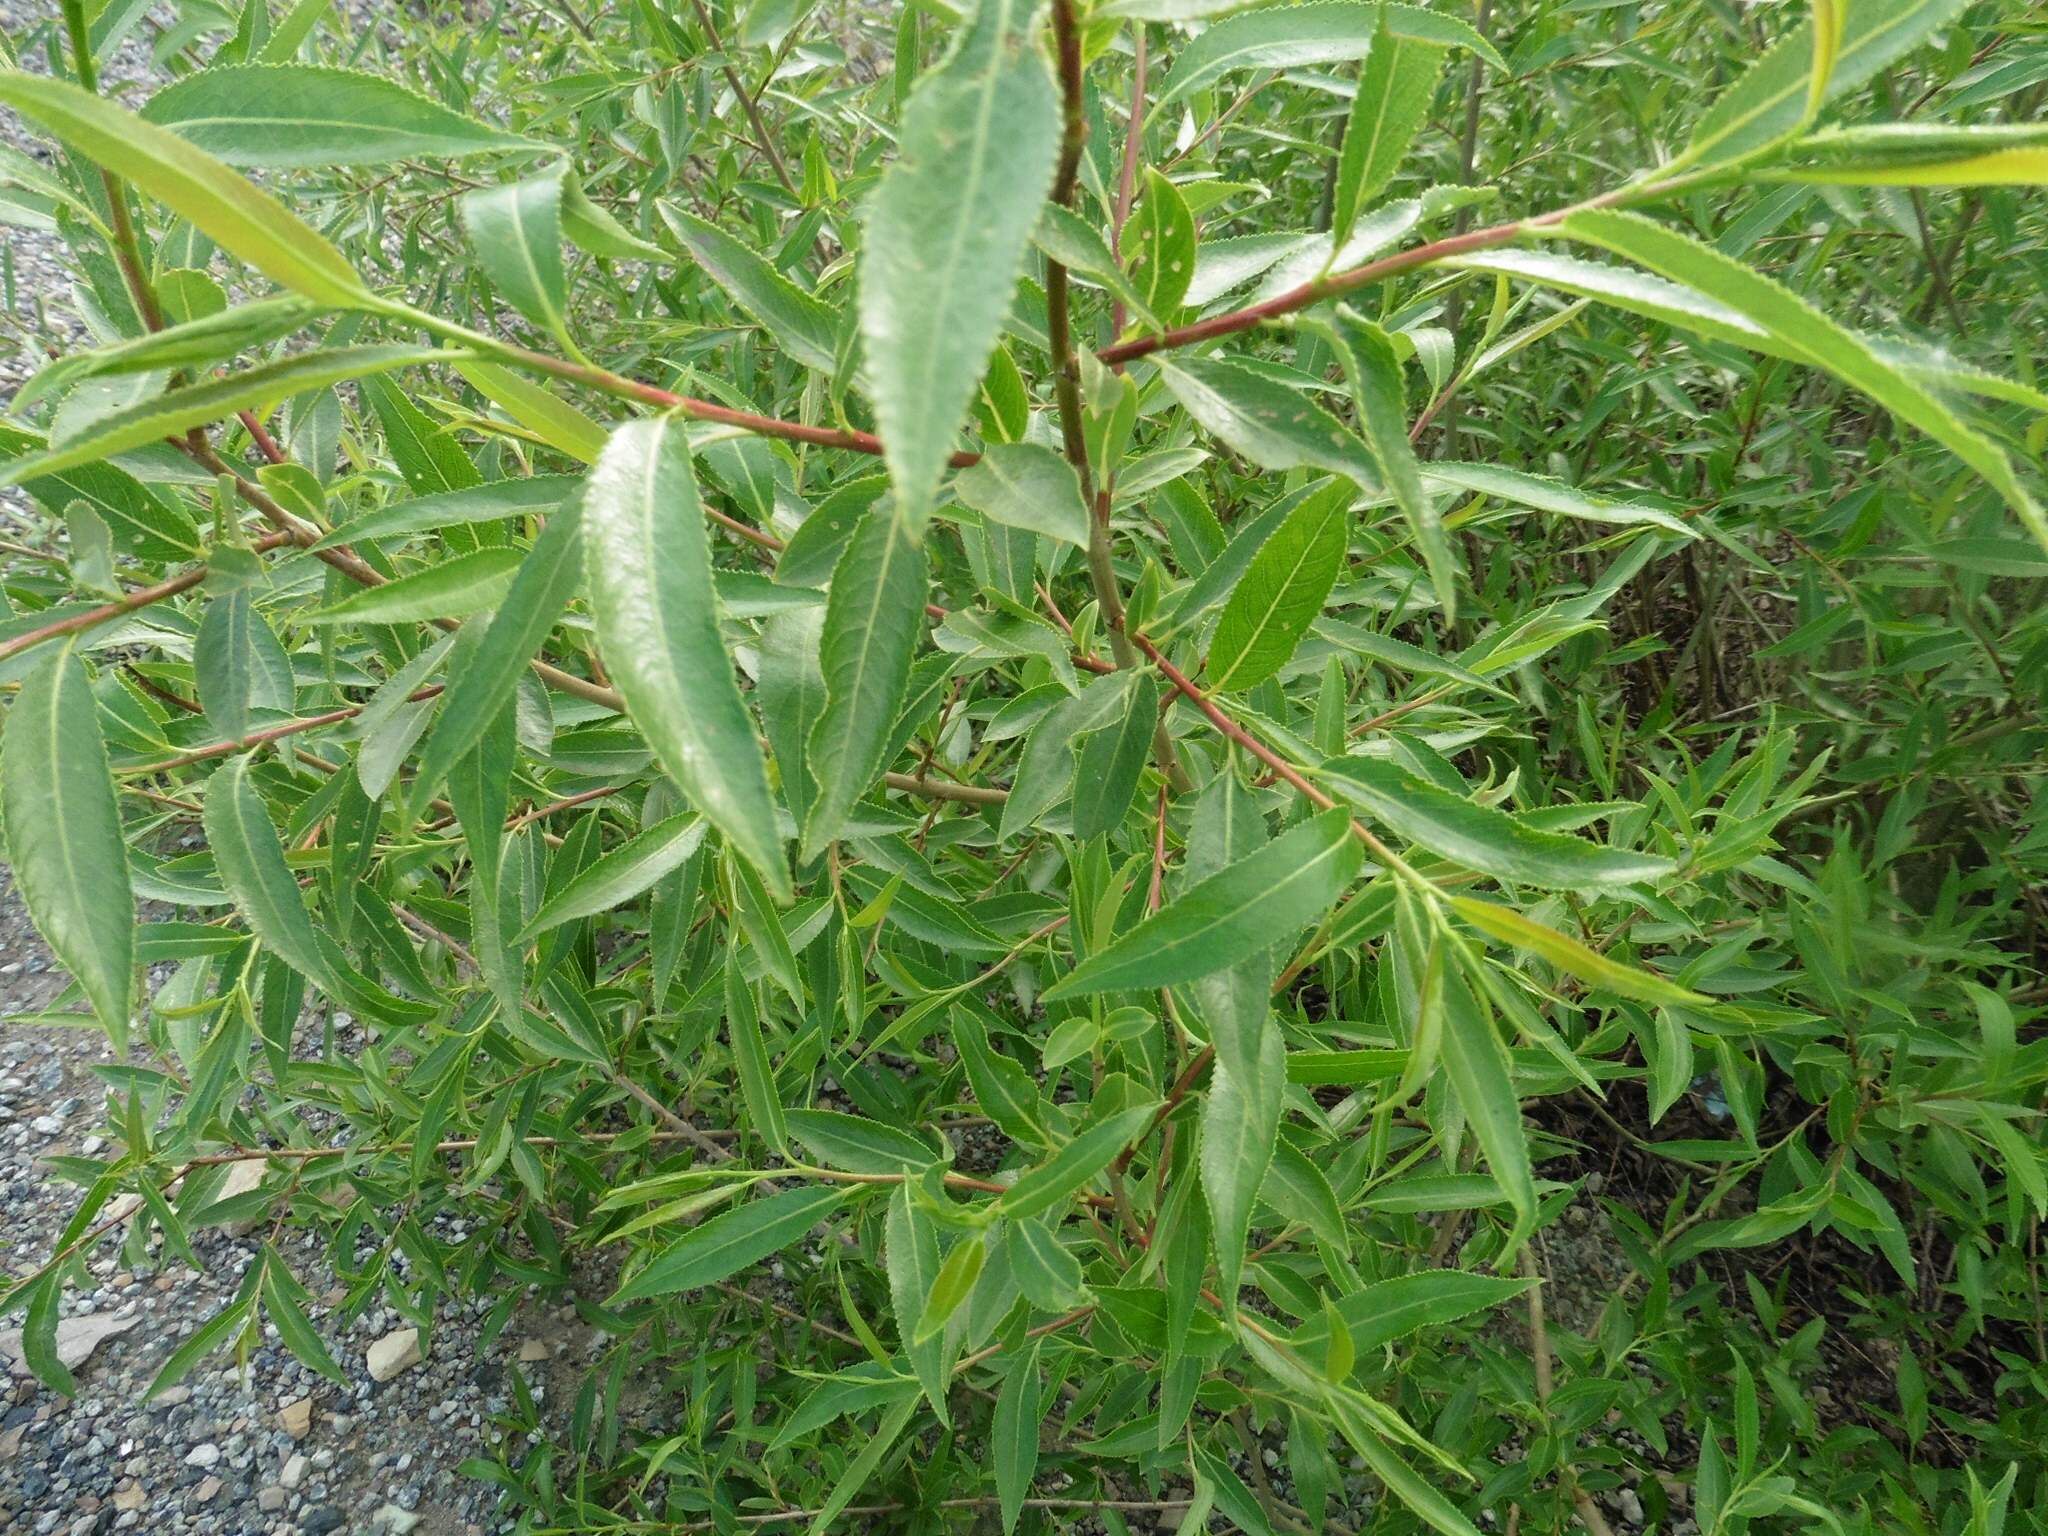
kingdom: Plantae
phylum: Tracheophyta
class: Magnoliopsida
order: Malpighiales
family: Salicaceae
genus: Salix
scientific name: Salix triandra
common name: Almond willow
